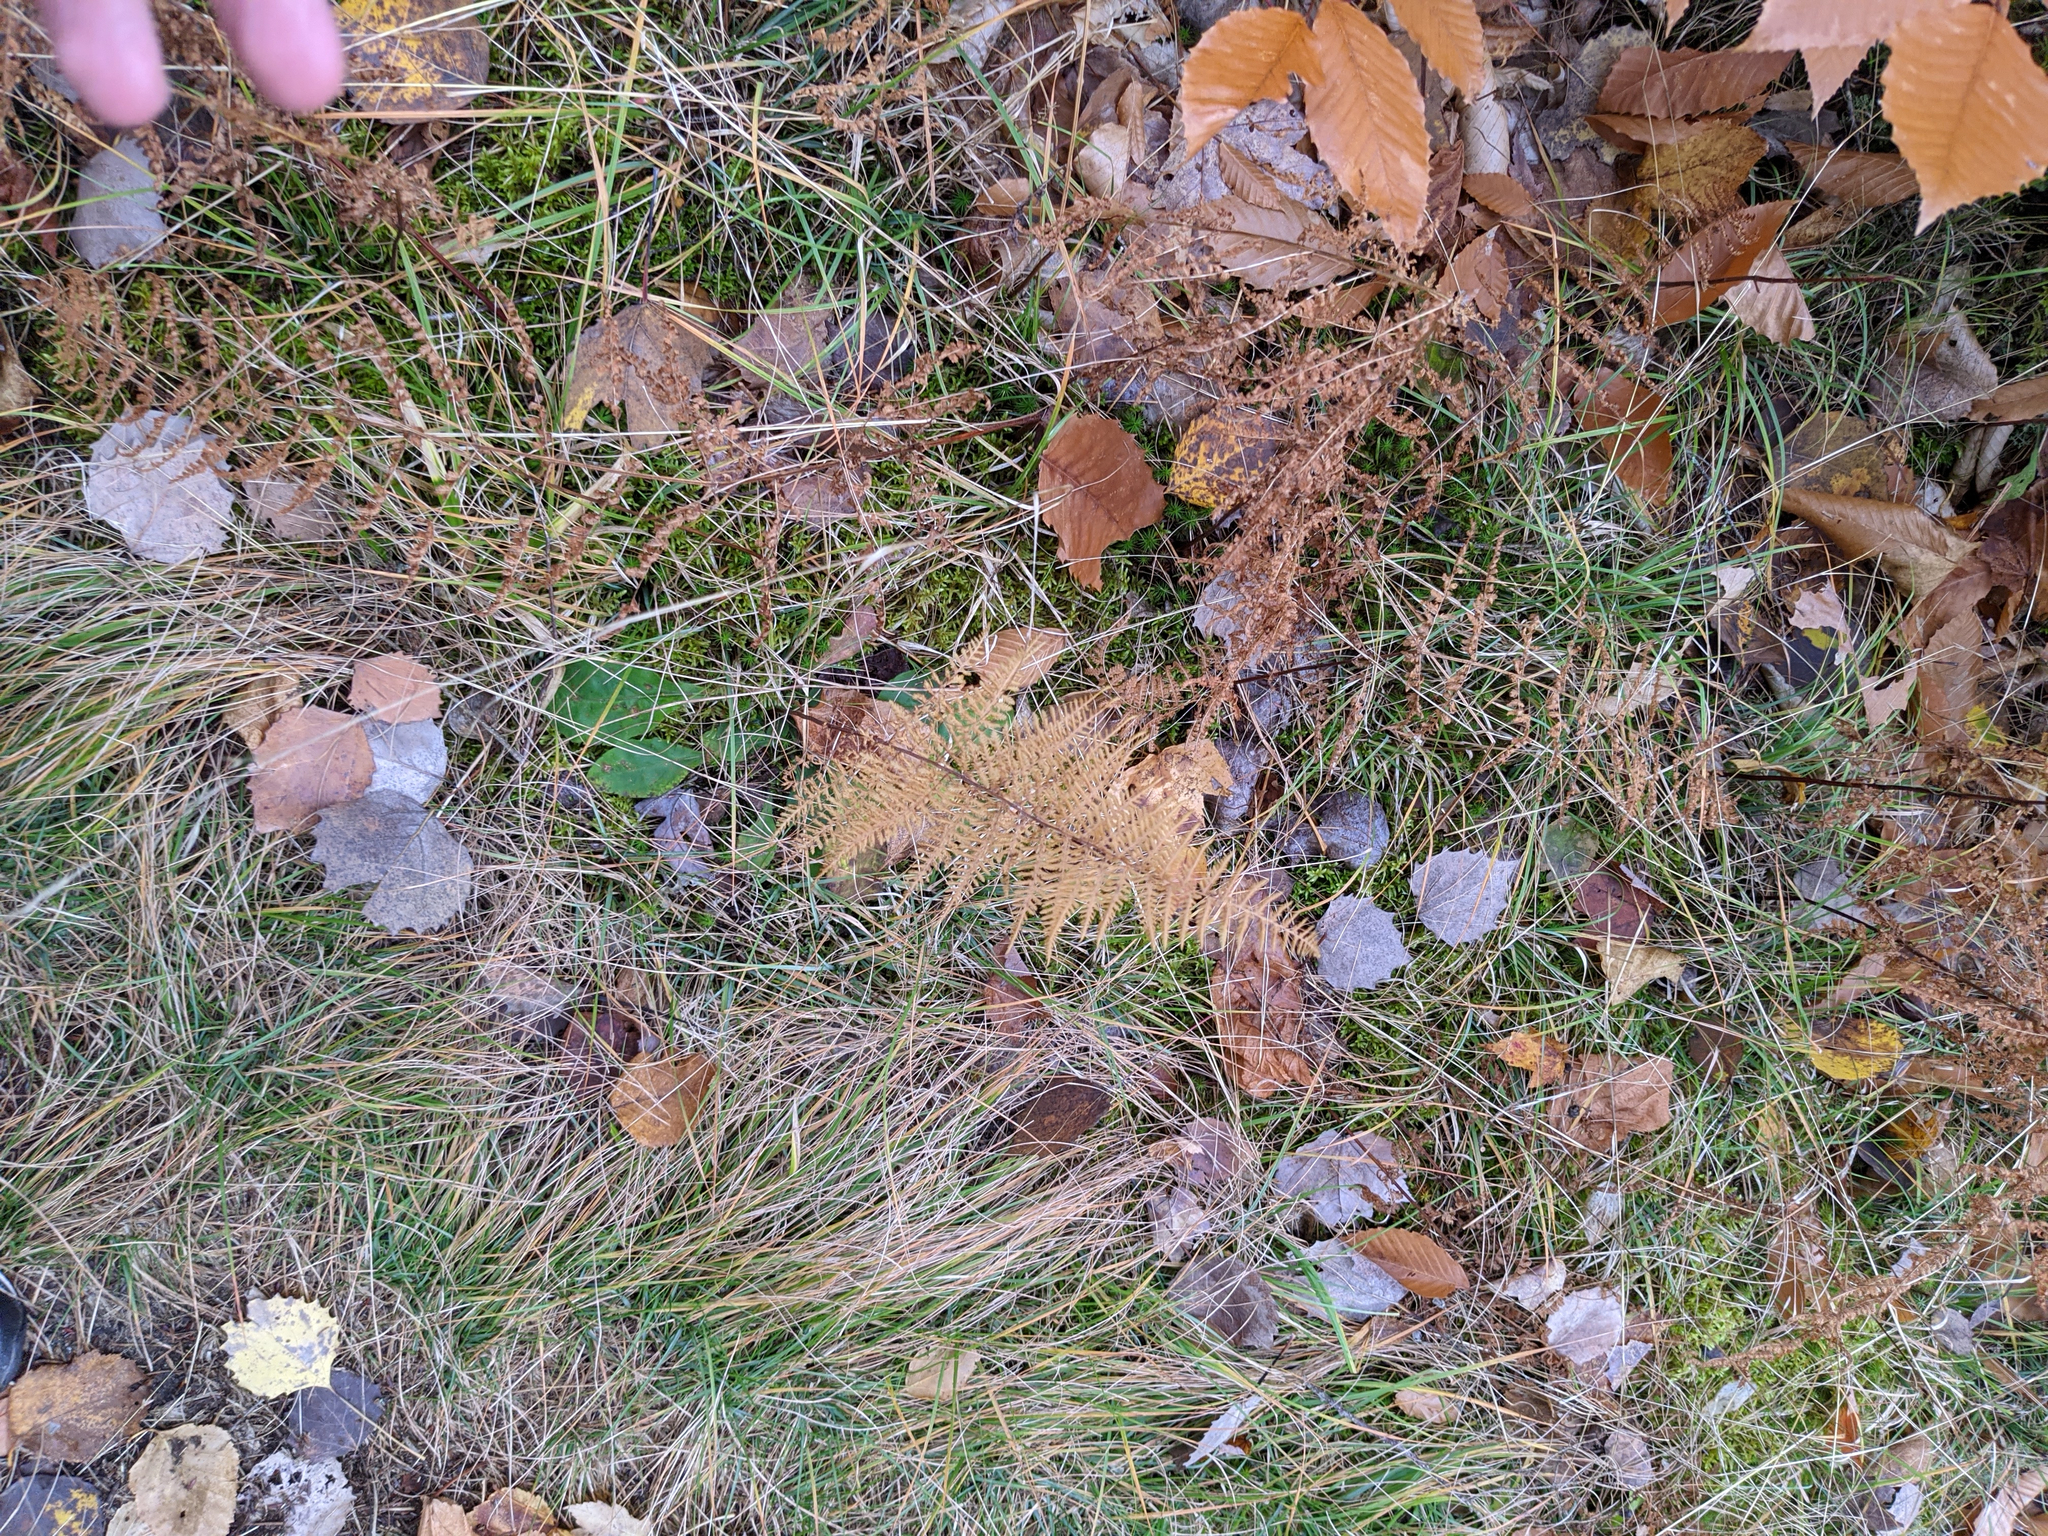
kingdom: Plantae
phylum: Tracheophyta
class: Polypodiopsida
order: Polypodiales
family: Dennstaedtiaceae
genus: Sitobolium
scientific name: Sitobolium punctilobum
